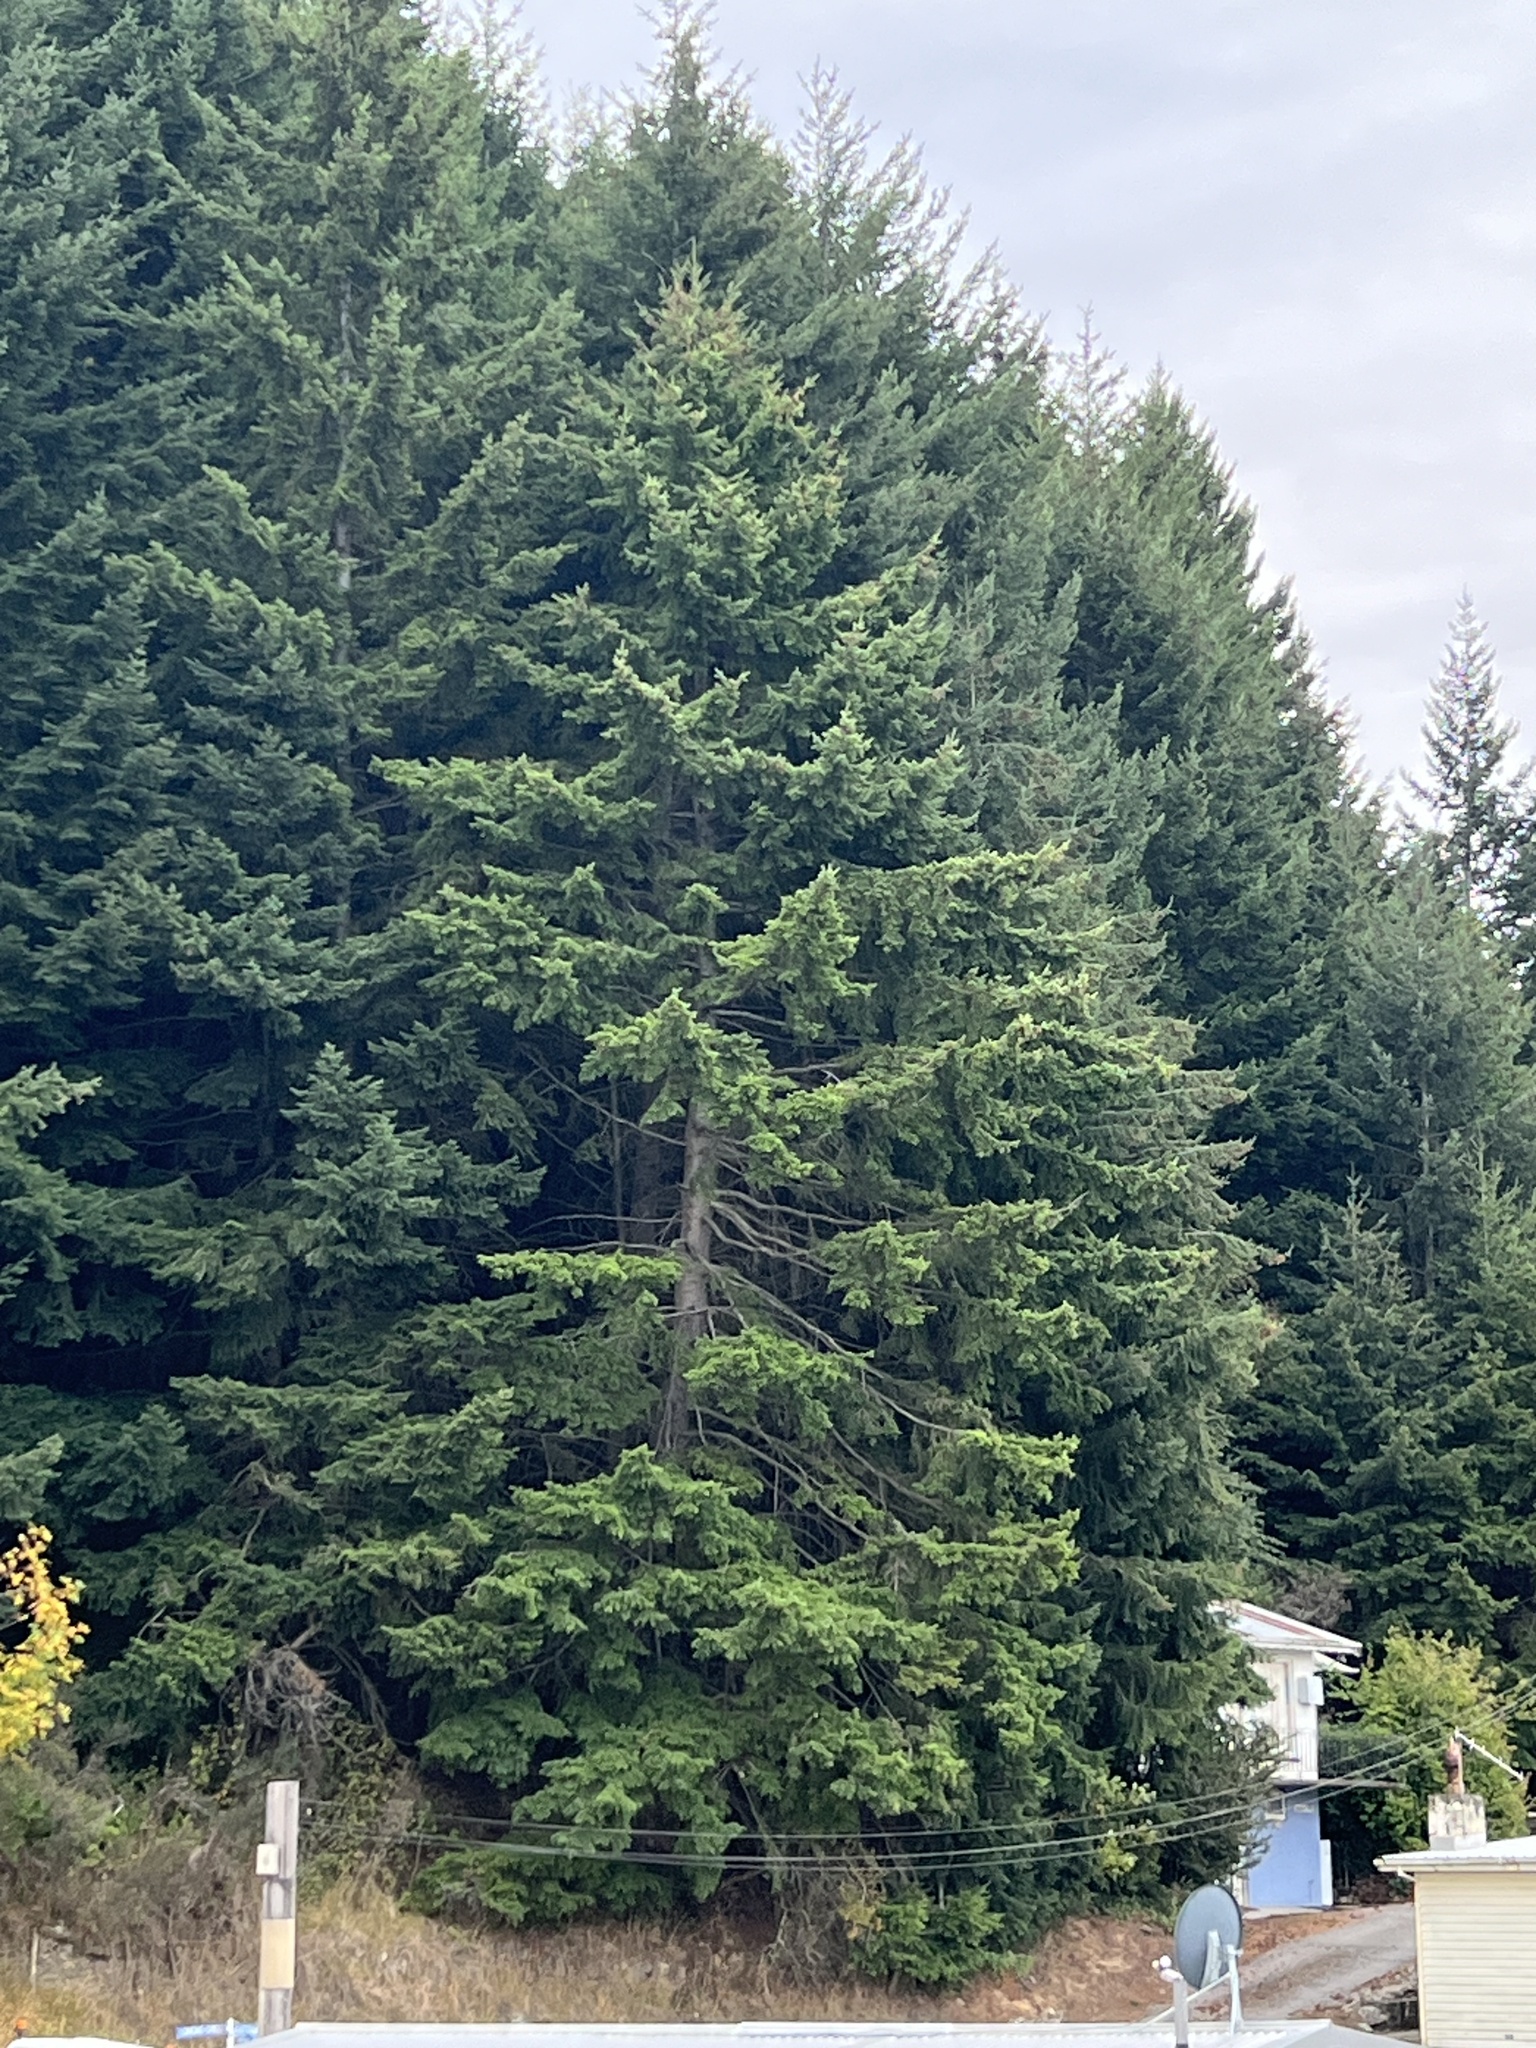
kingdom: Plantae
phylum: Tracheophyta
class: Pinopsida
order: Pinales
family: Pinaceae
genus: Pseudotsuga
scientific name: Pseudotsuga menziesii
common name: Douglas fir
